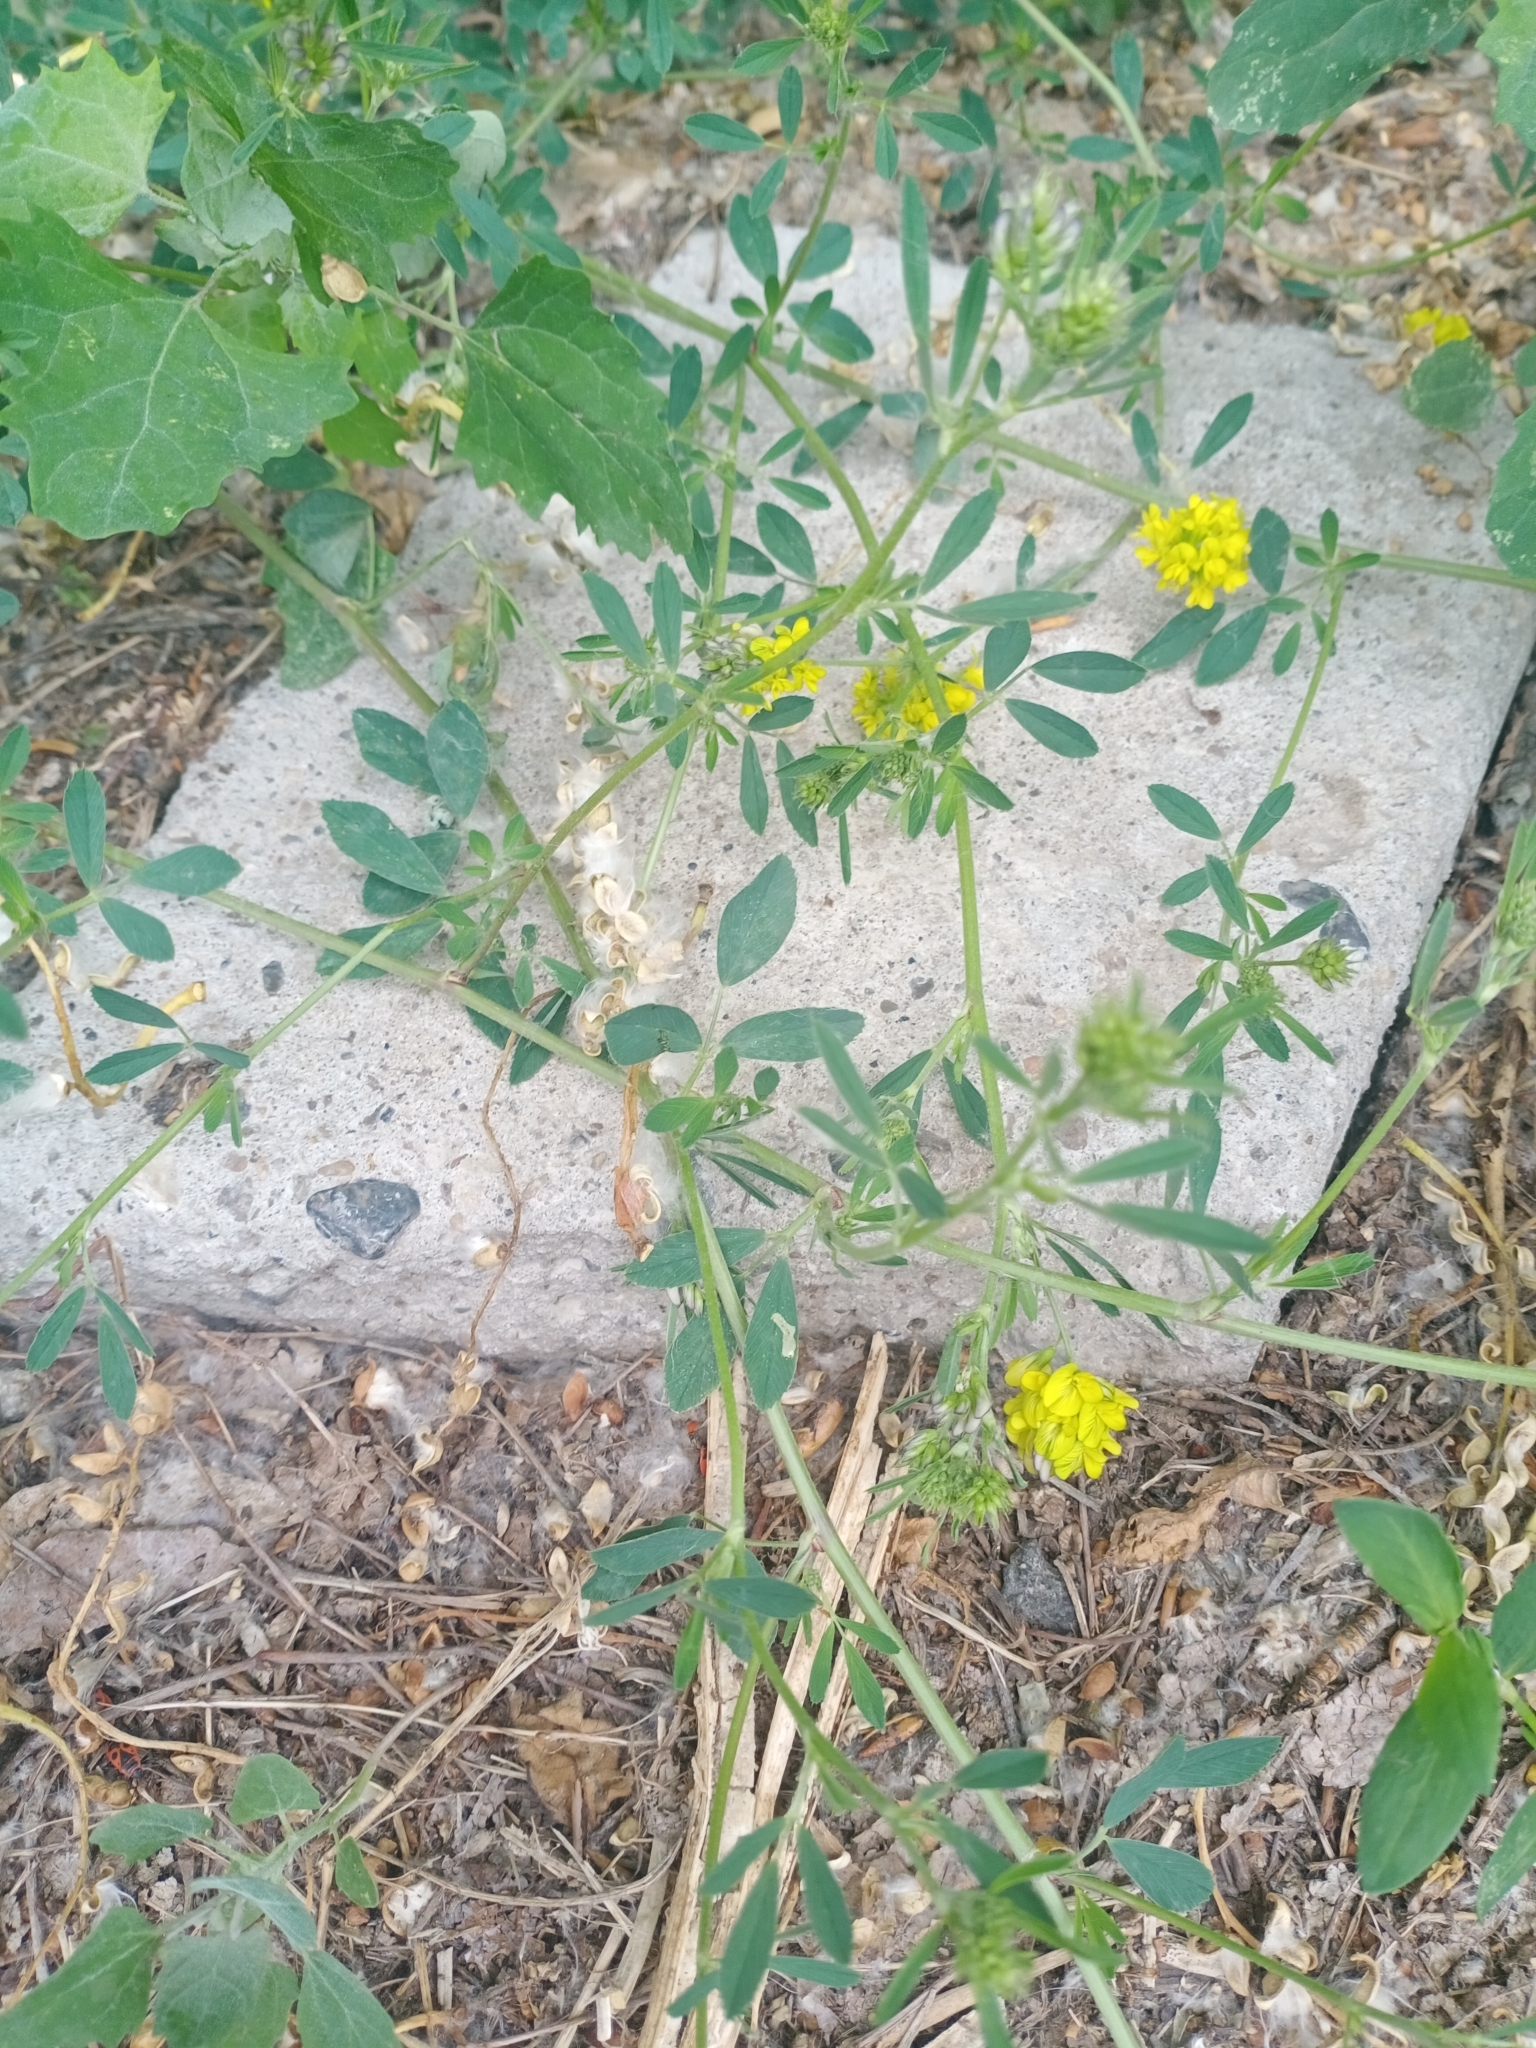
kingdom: Plantae
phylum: Tracheophyta
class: Magnoliopsida
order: Fabales
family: Fabaceae
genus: Medicago
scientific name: Medicago falcata
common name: Sickle medick
